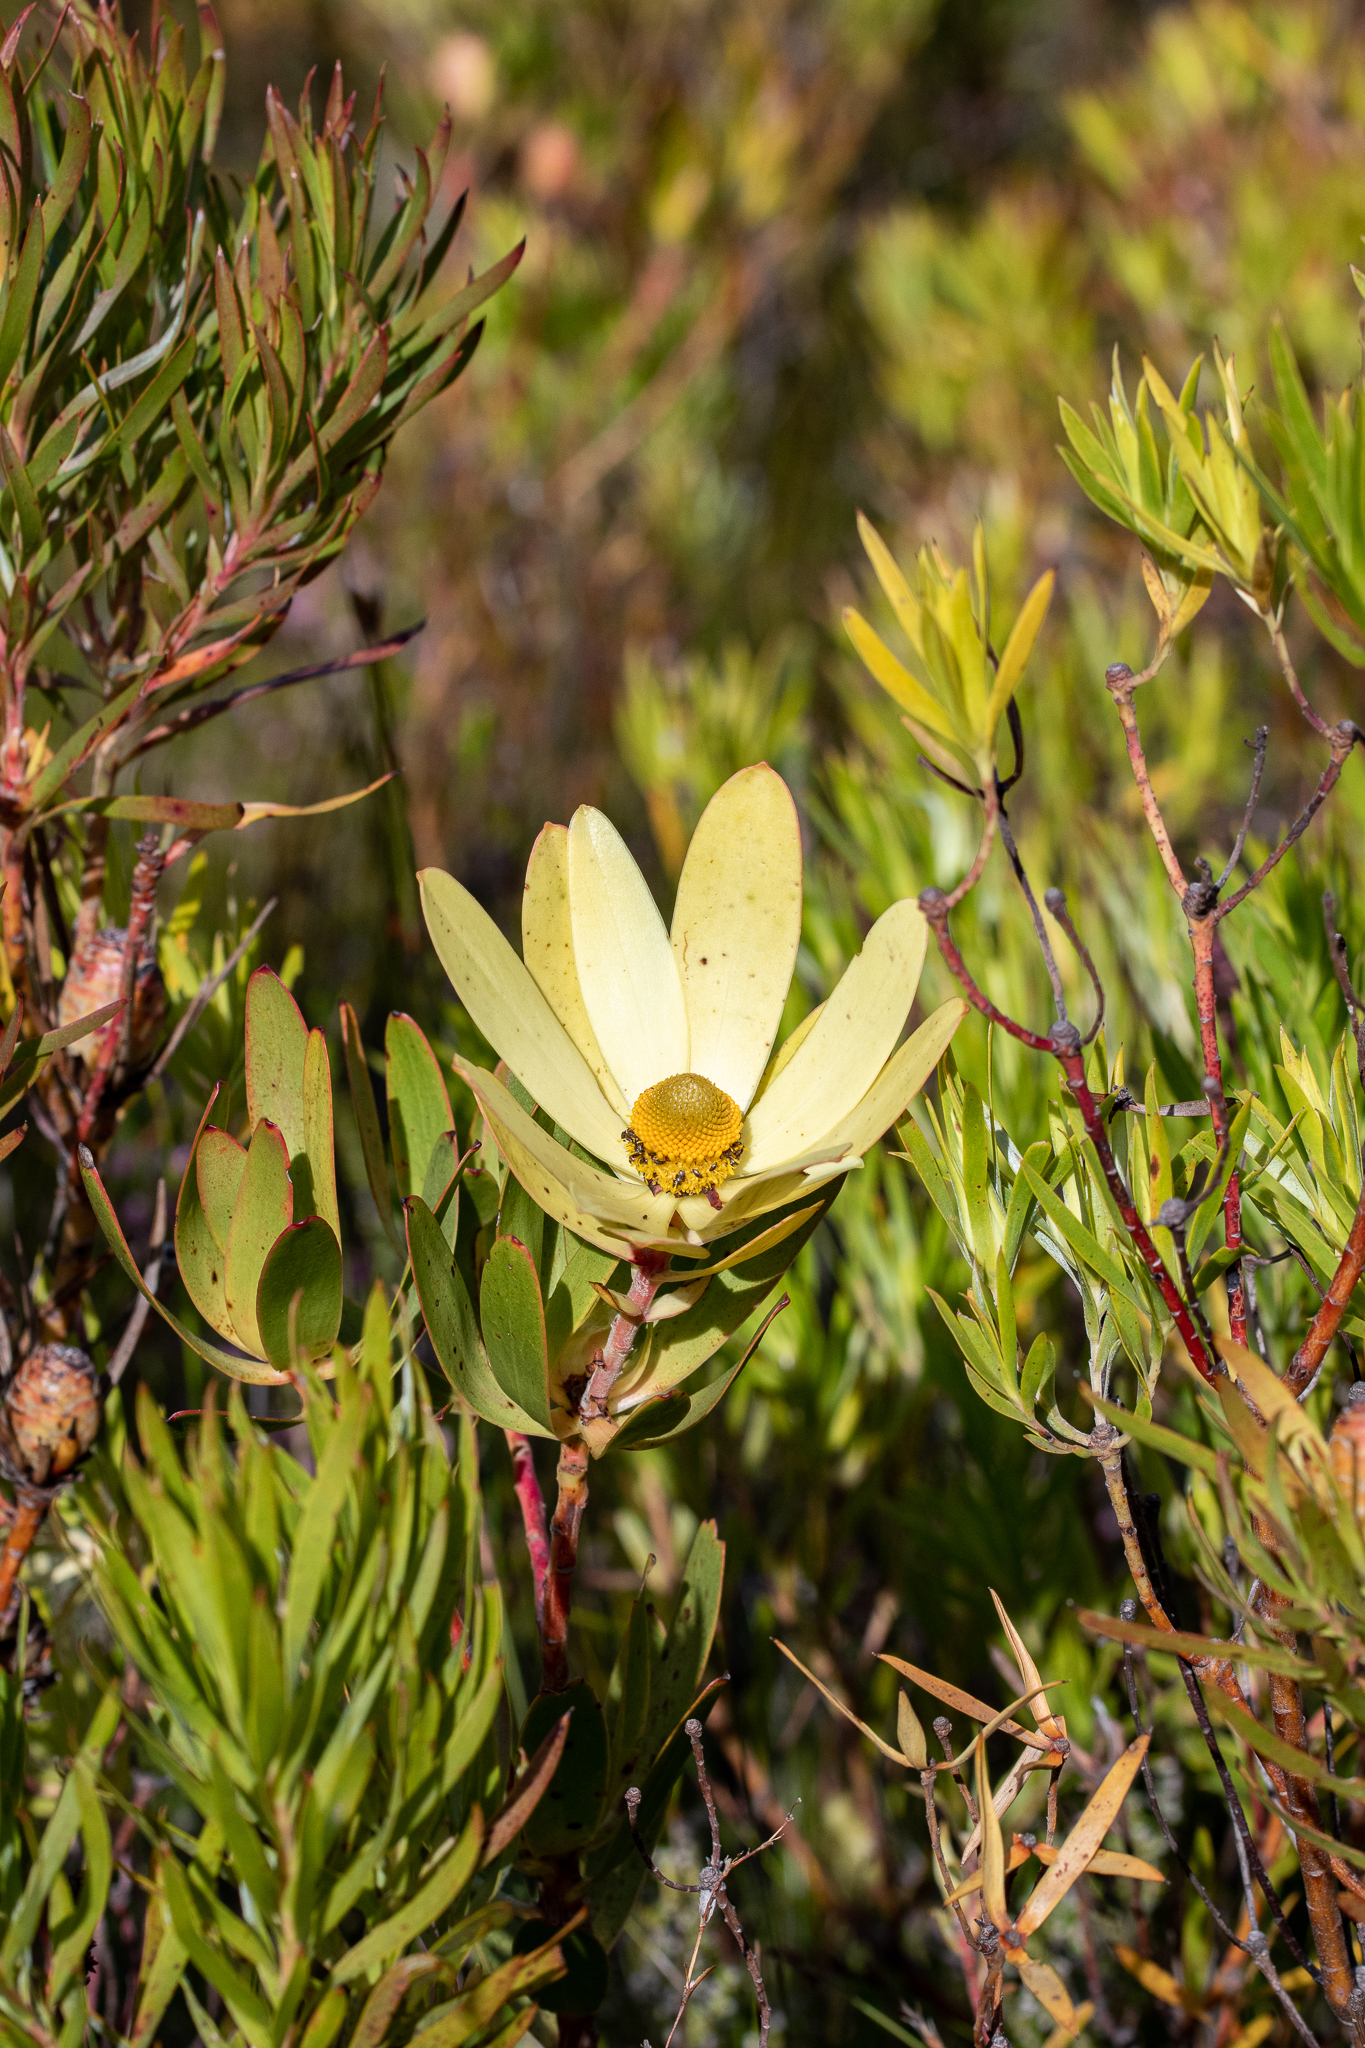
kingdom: Plantae
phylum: Tracheophyta
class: Magnoliopsida
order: Proteales
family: Proteaceae
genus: Leucadendron
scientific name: Leucadendron gandogeri
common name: Broad-leaf conebush
